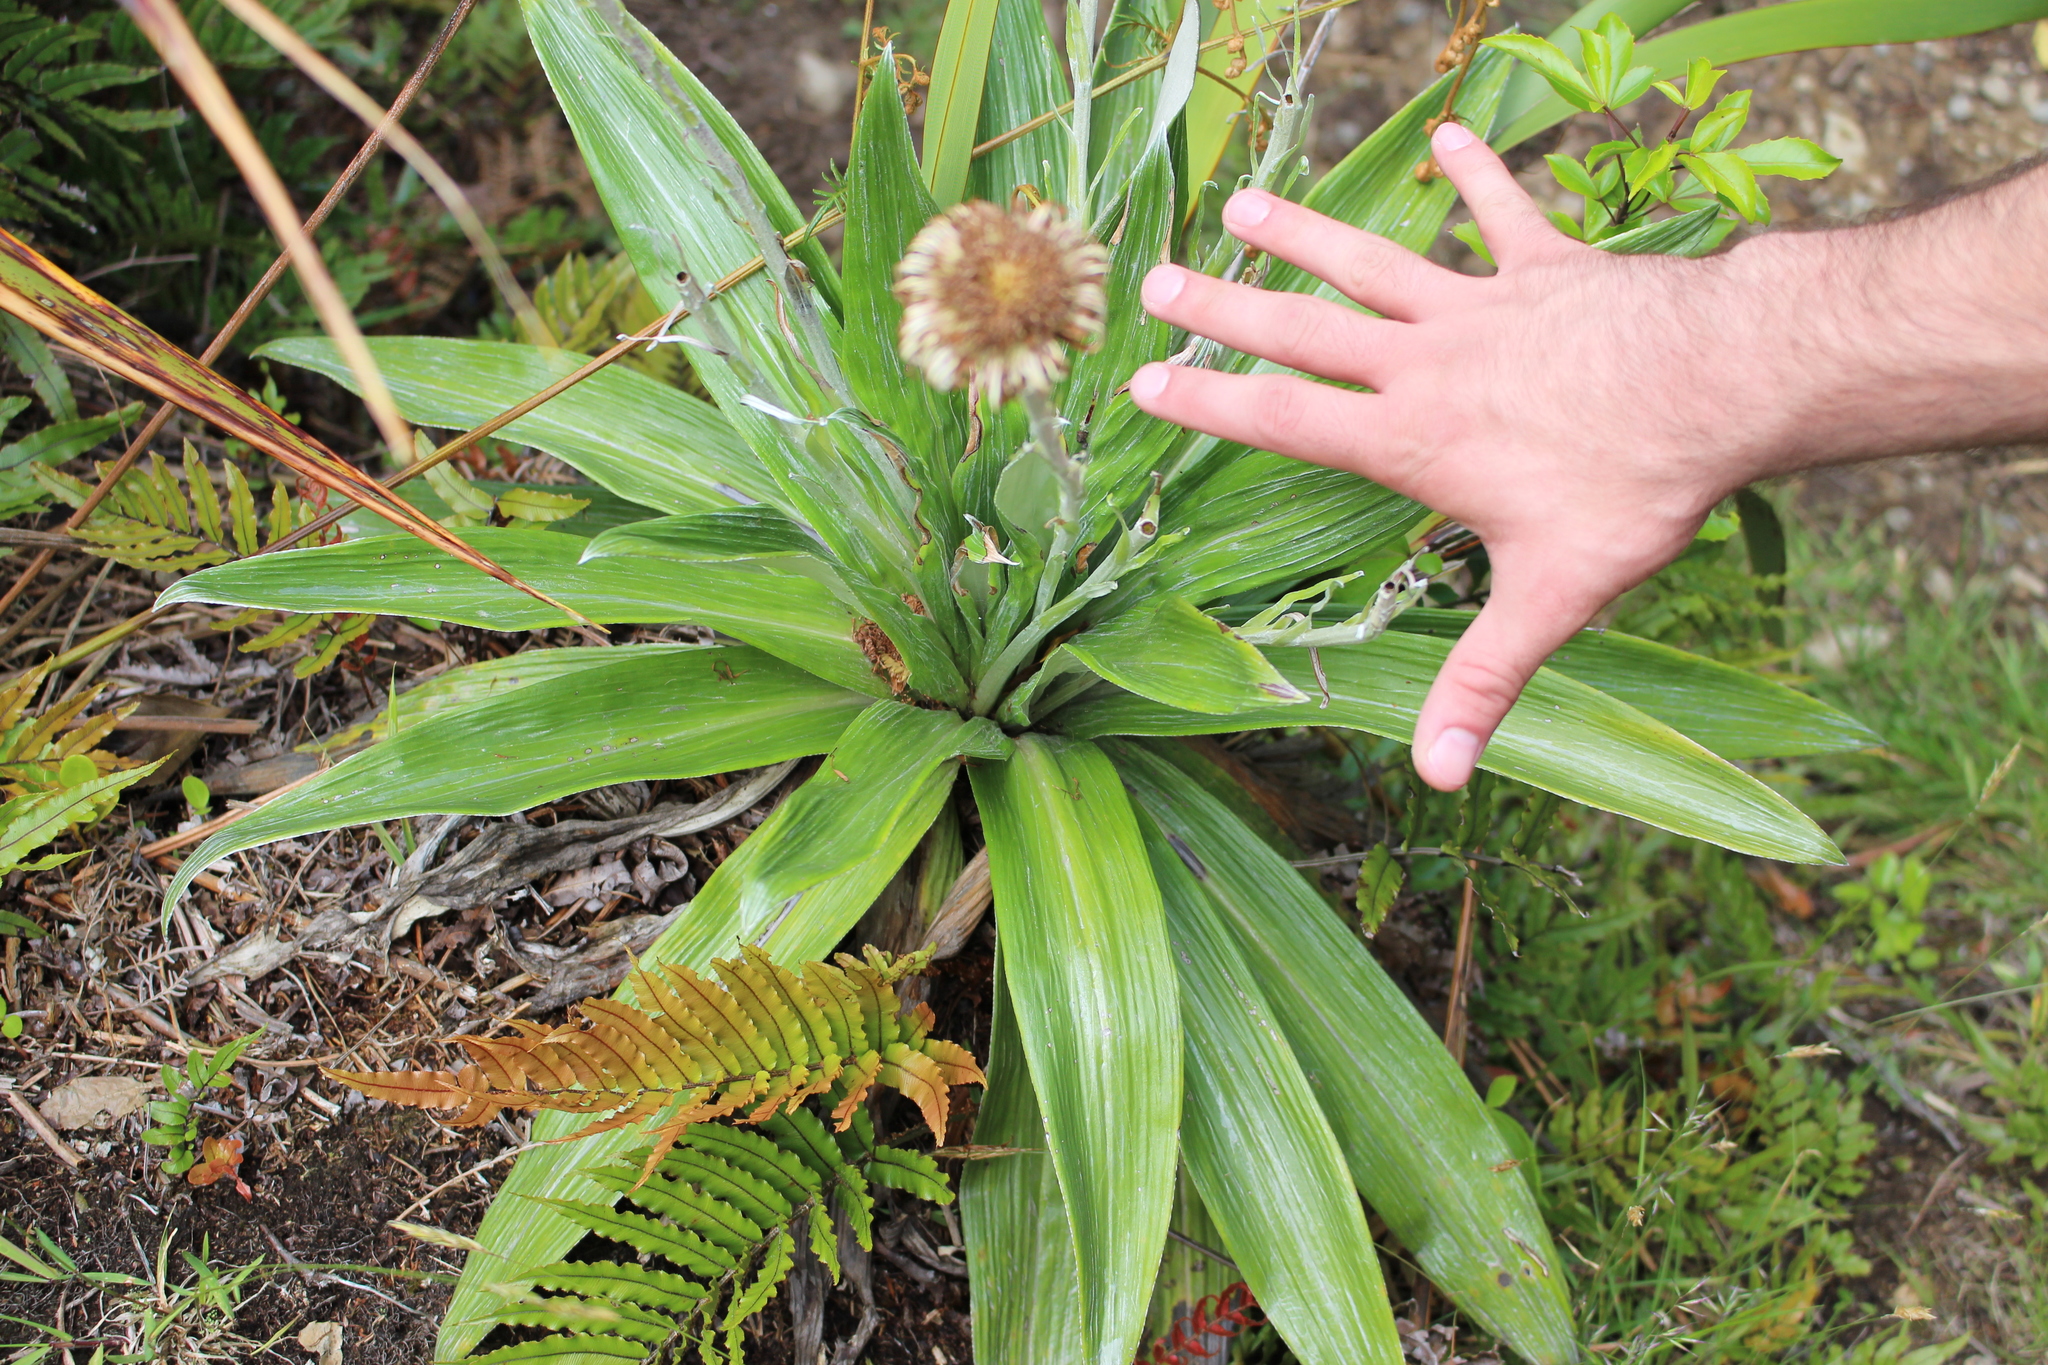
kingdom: Plantae
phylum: Tracheophyta
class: Magnoliopsida
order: Asterales
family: Asteraceae
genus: Celmisia
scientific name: Celmisia semicordata
